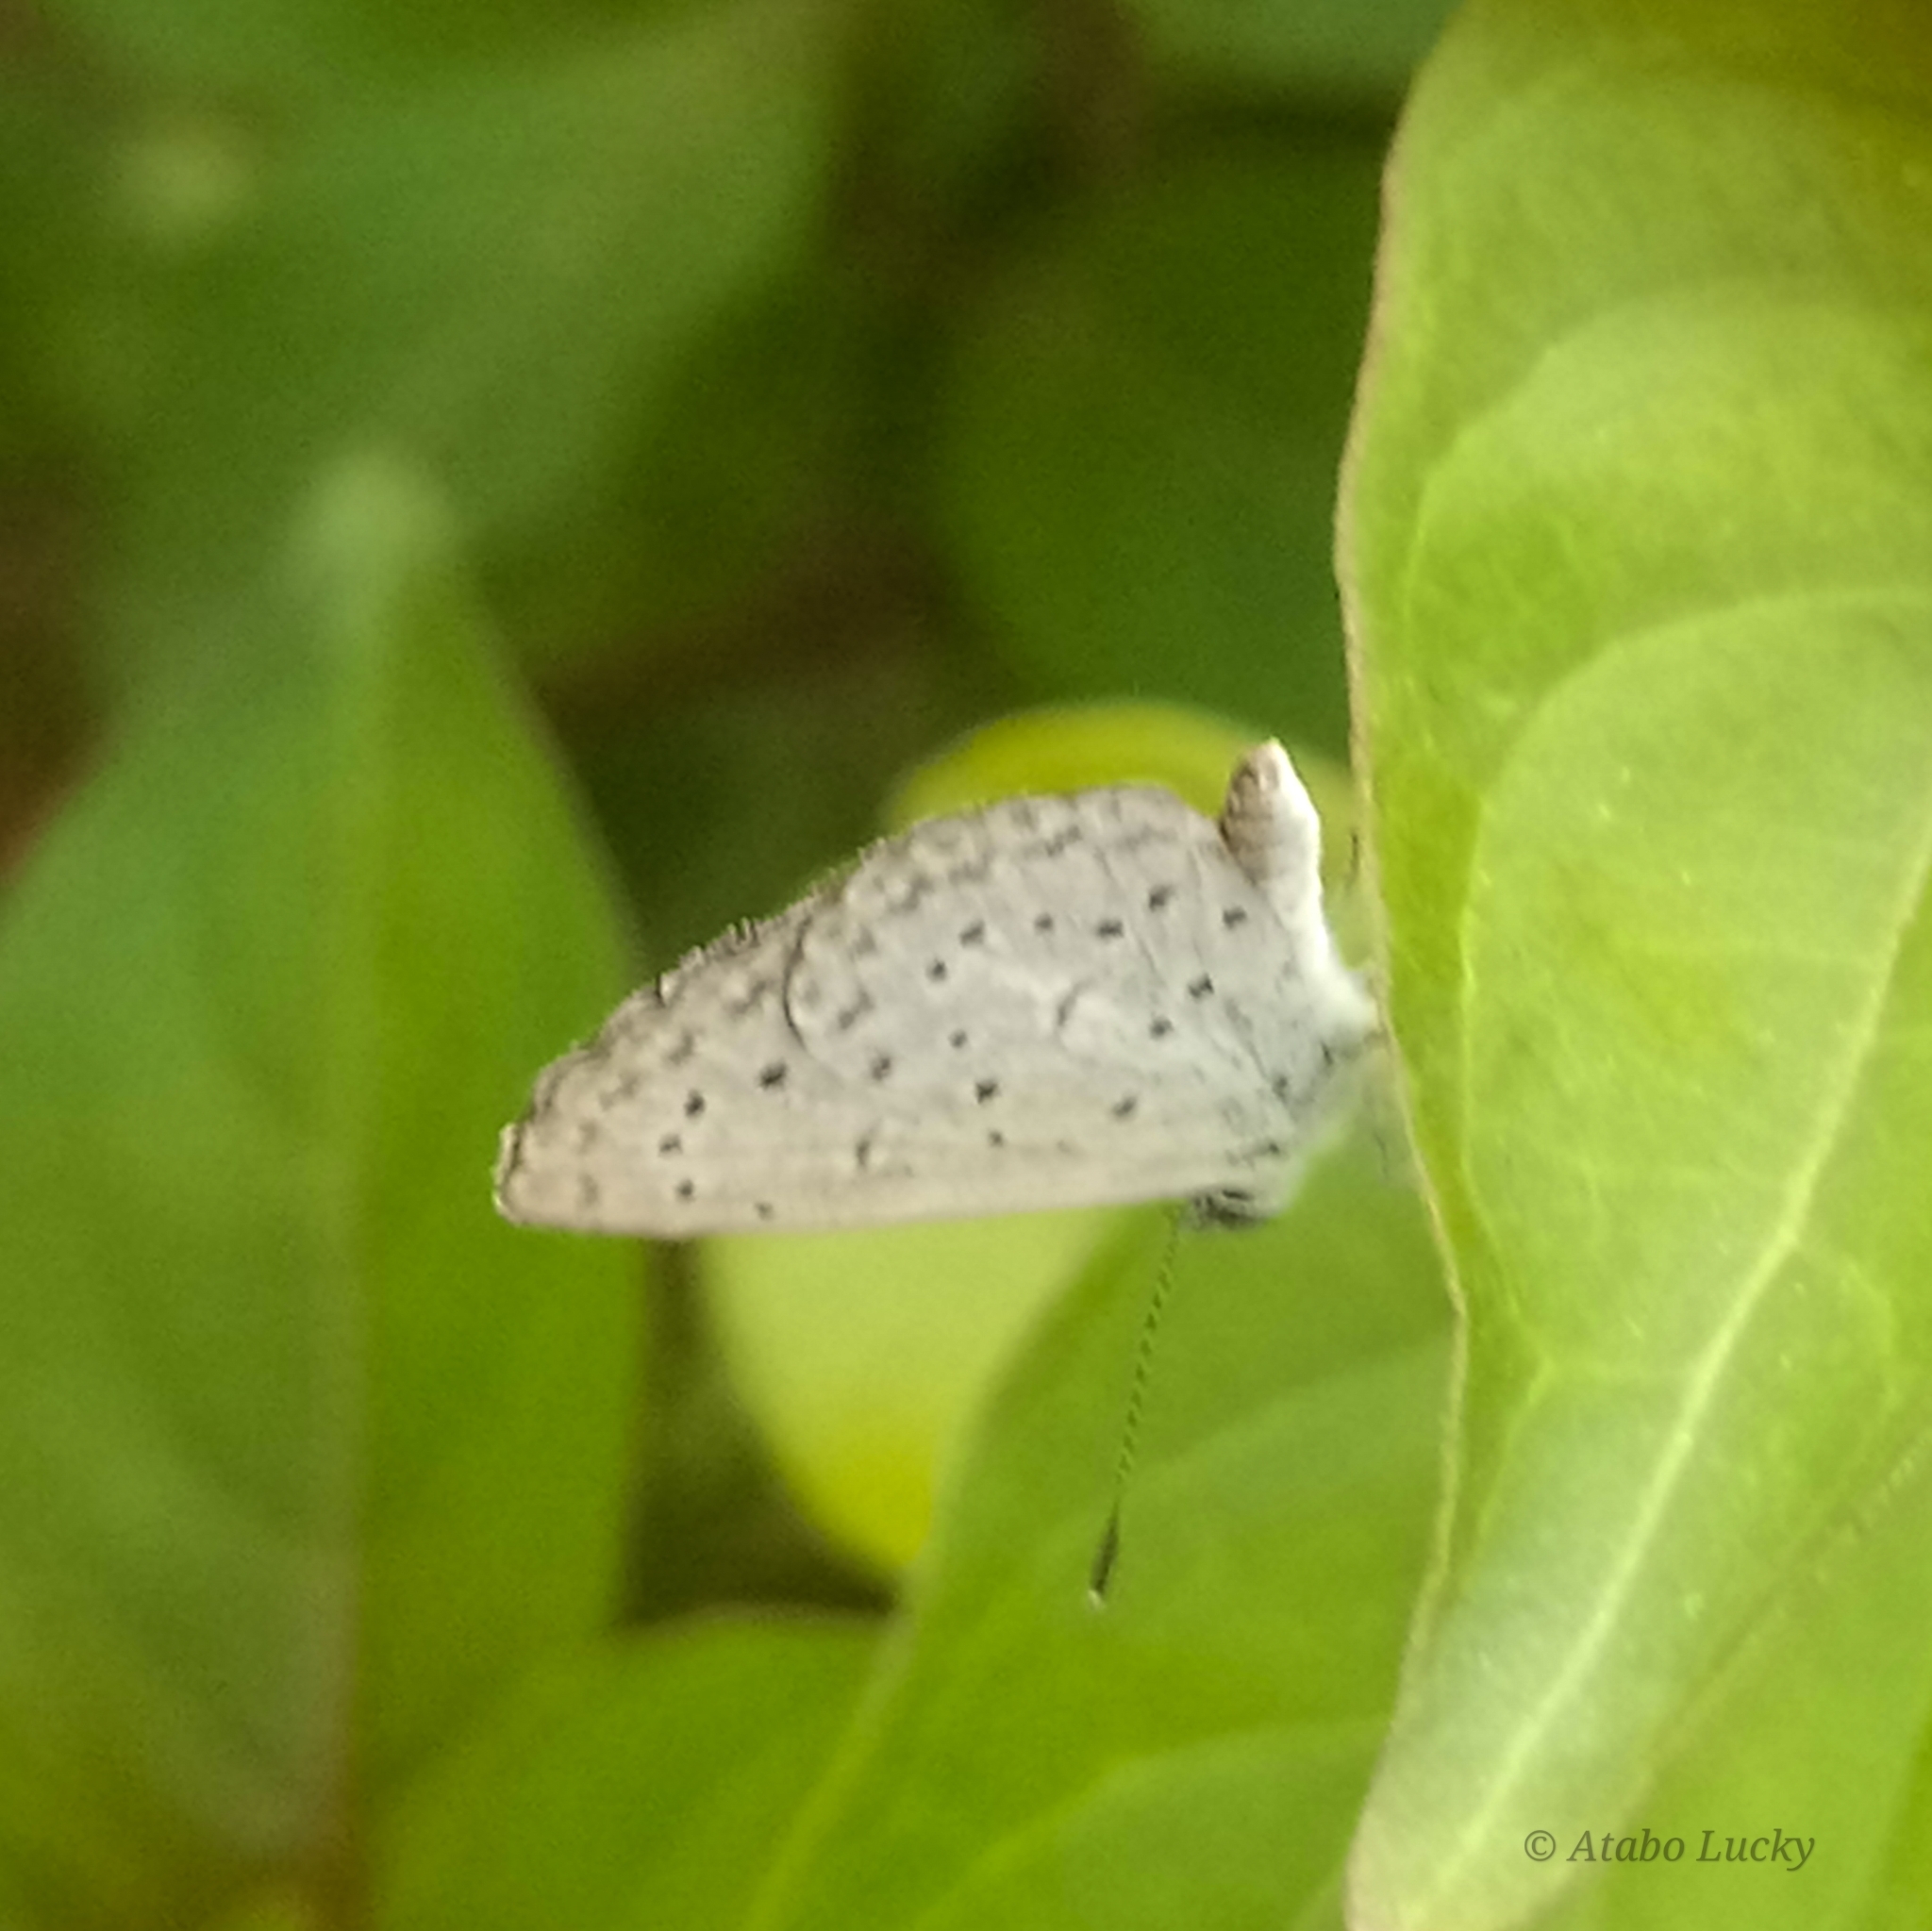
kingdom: Animalia
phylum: Arthropoda
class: Insecta
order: Lepidoptera
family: Lycaenidae
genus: Zizeeria
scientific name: Zizeeria knysna
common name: African grass blue
